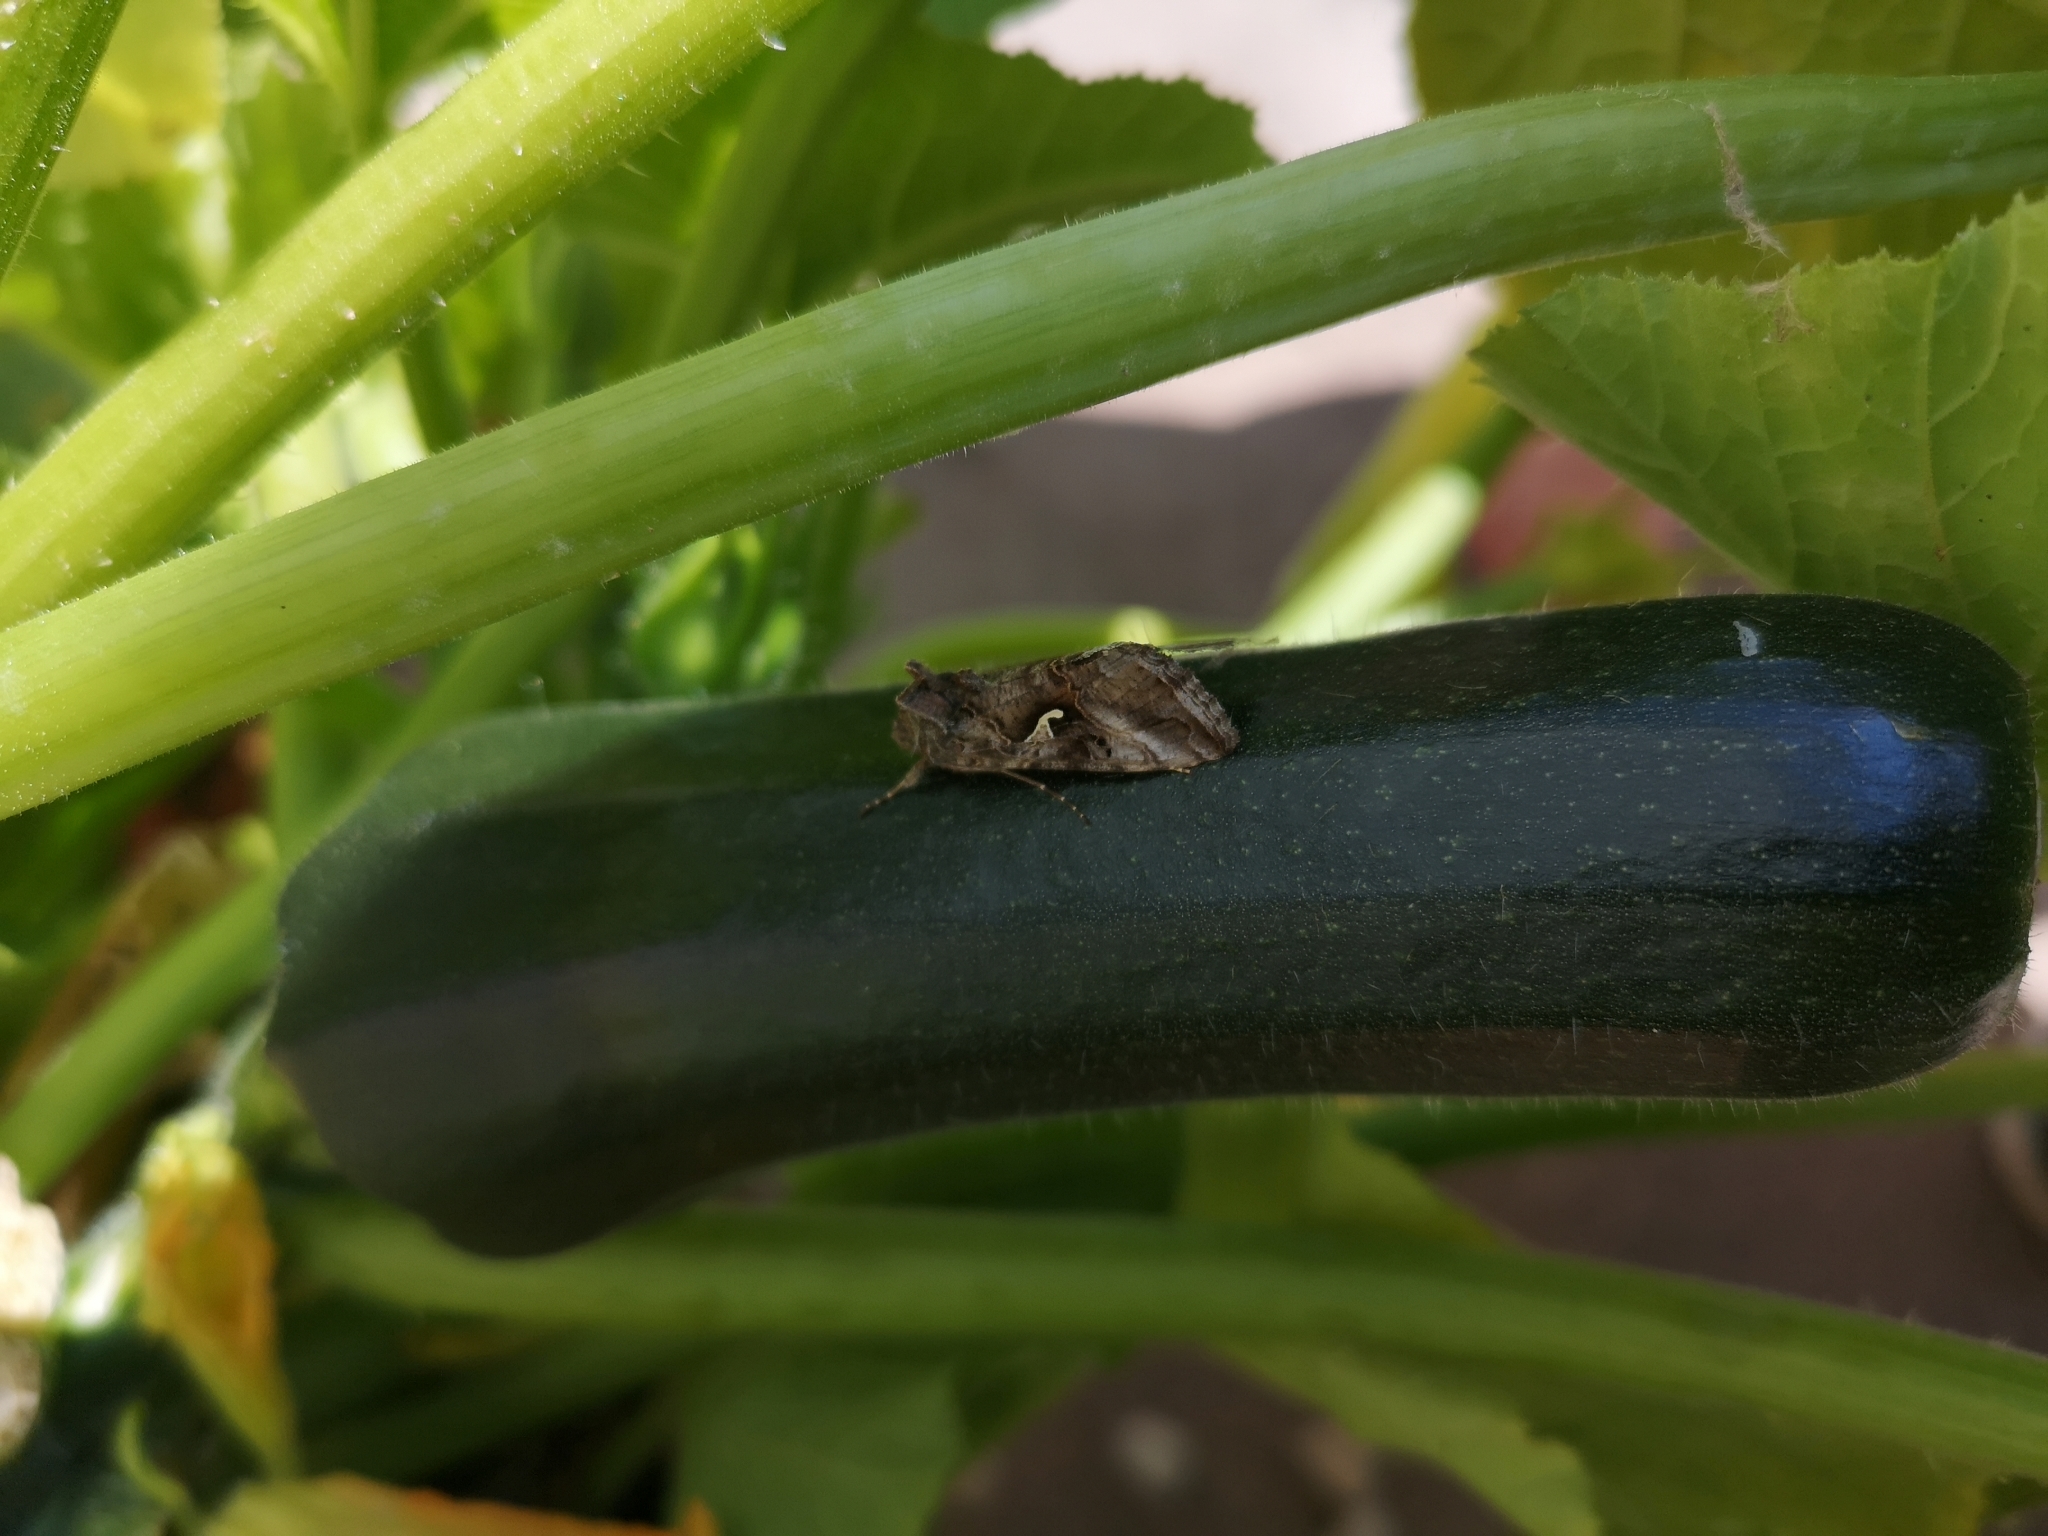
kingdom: Animalia
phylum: Arthropoda
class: Insecta
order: Lepidoptera
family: Noctuidae
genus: Autographa
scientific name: Autographa gamma
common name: Silver y
